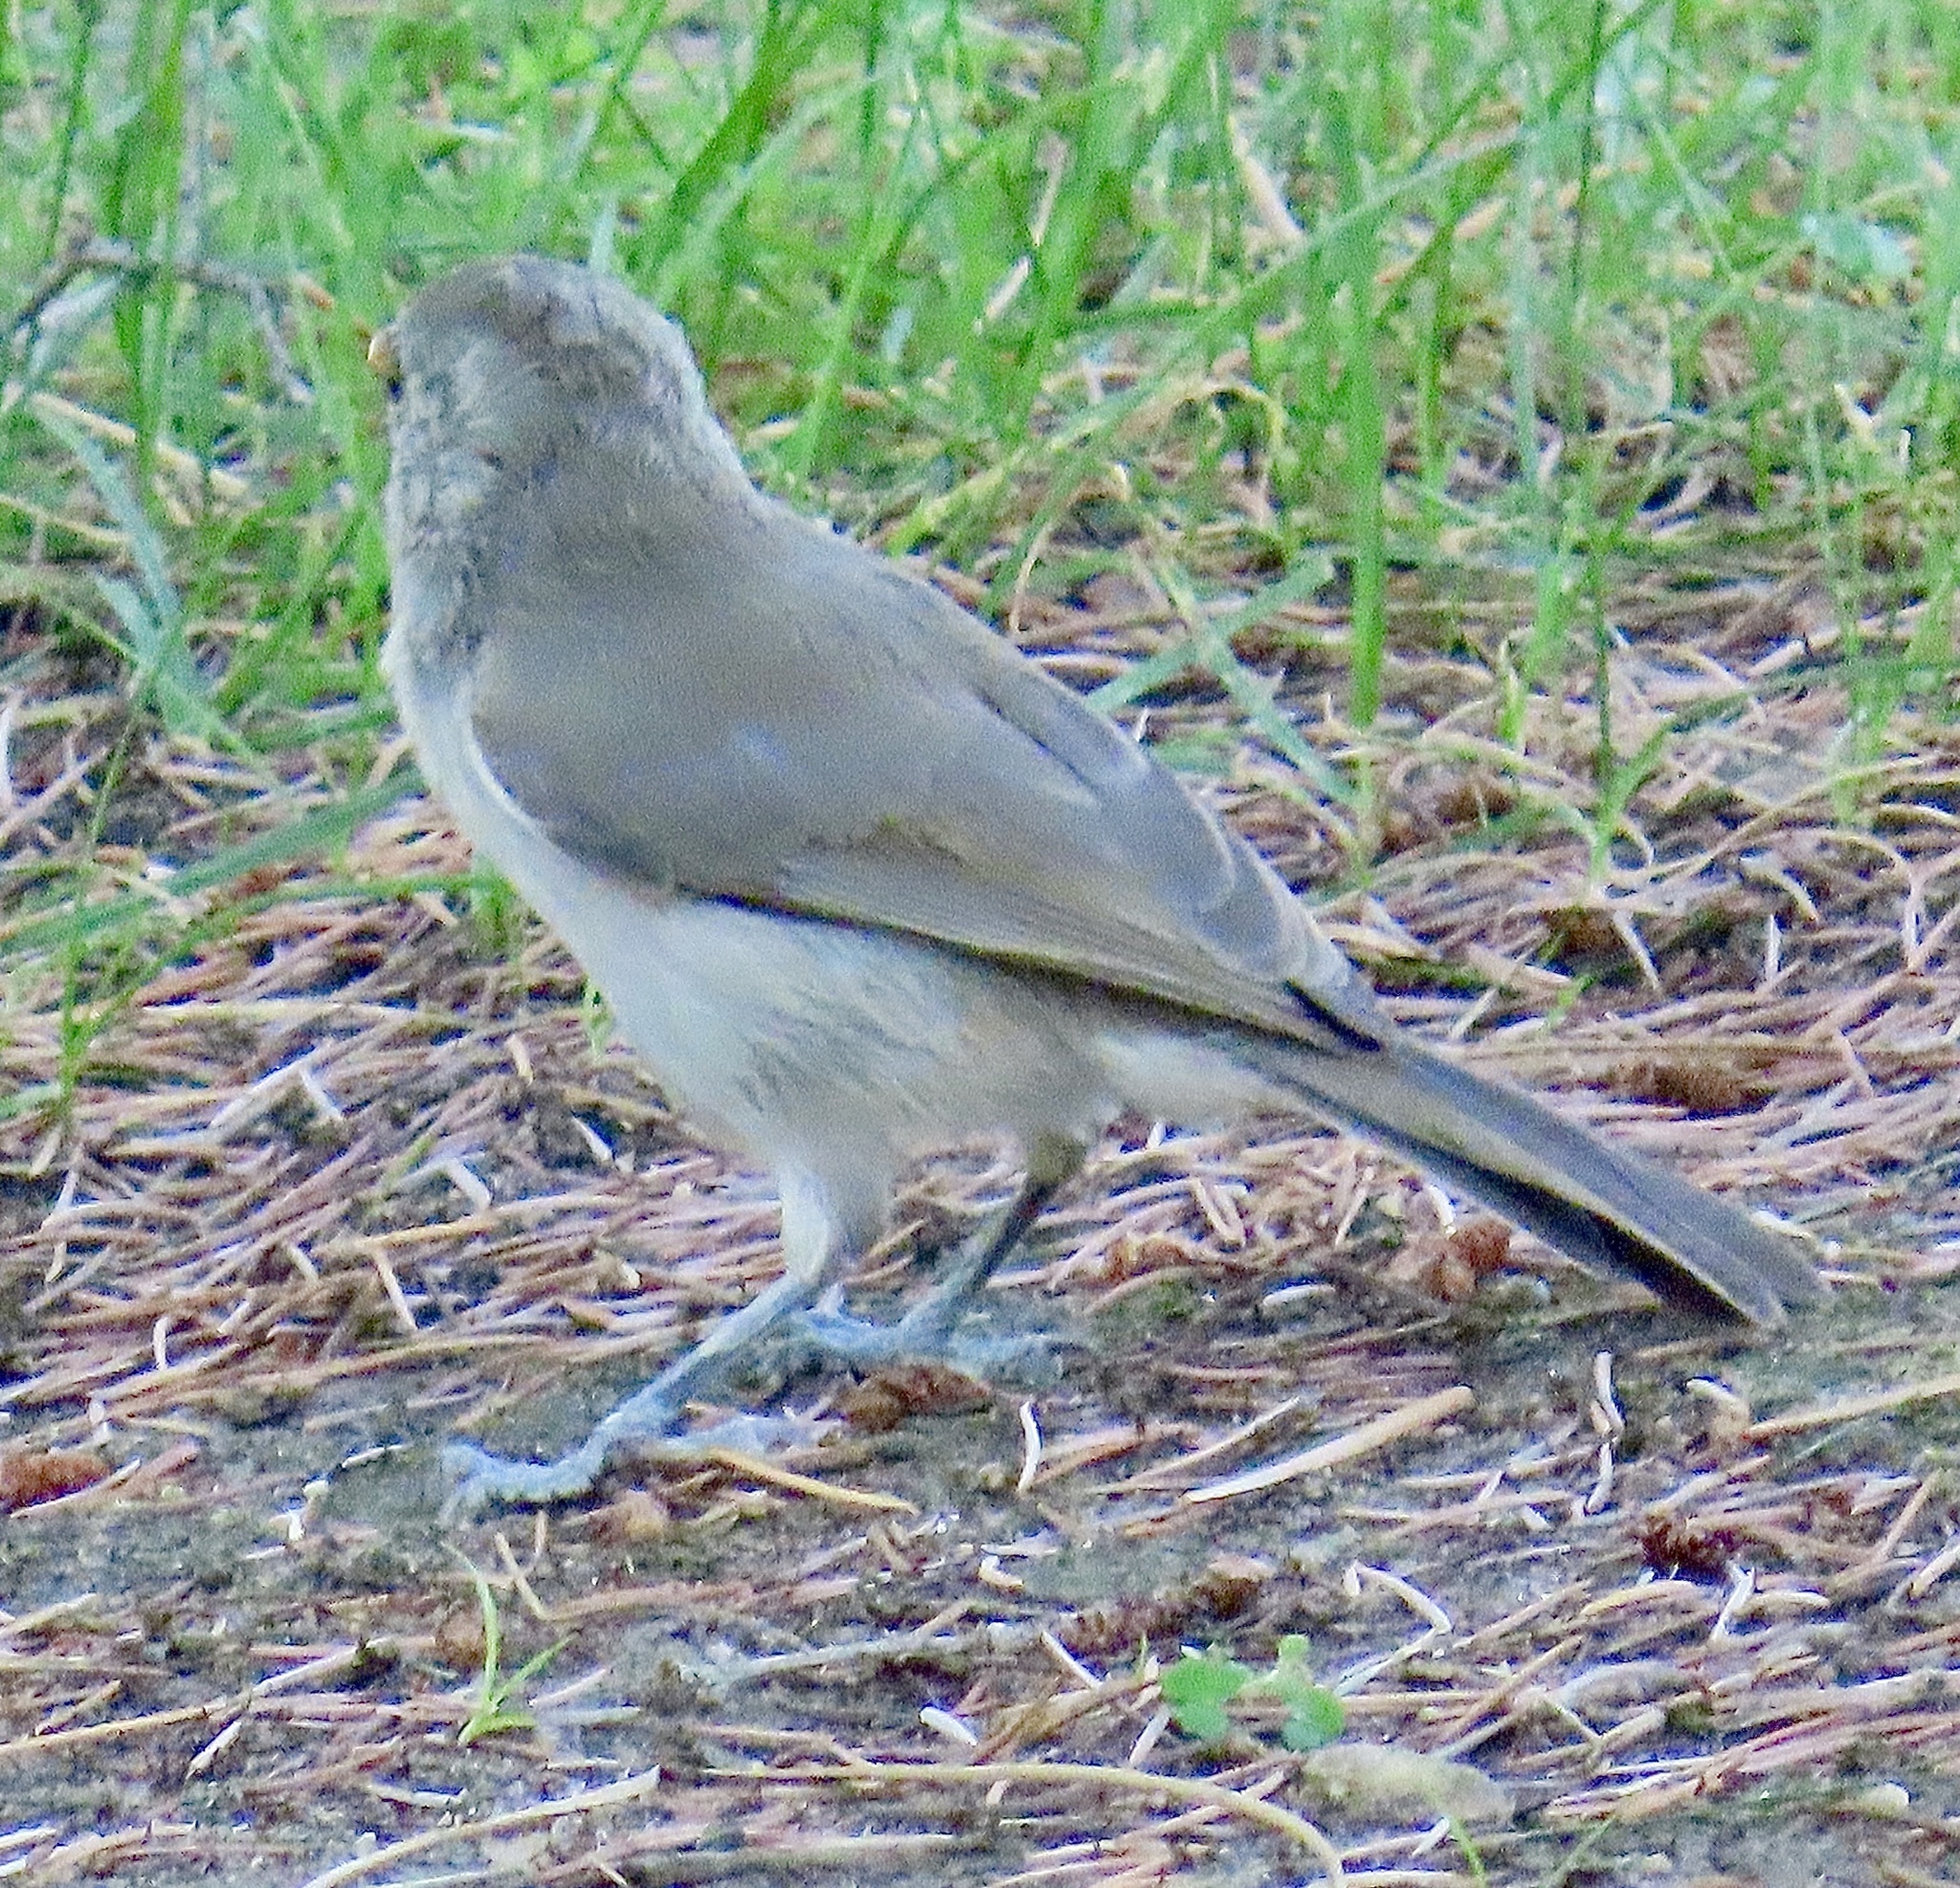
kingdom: Animalia
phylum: Chordata
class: Aves
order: Passeriformes
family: Paridae
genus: Baeolophus
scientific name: Baeolophus inornatus
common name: Oak titmouse
